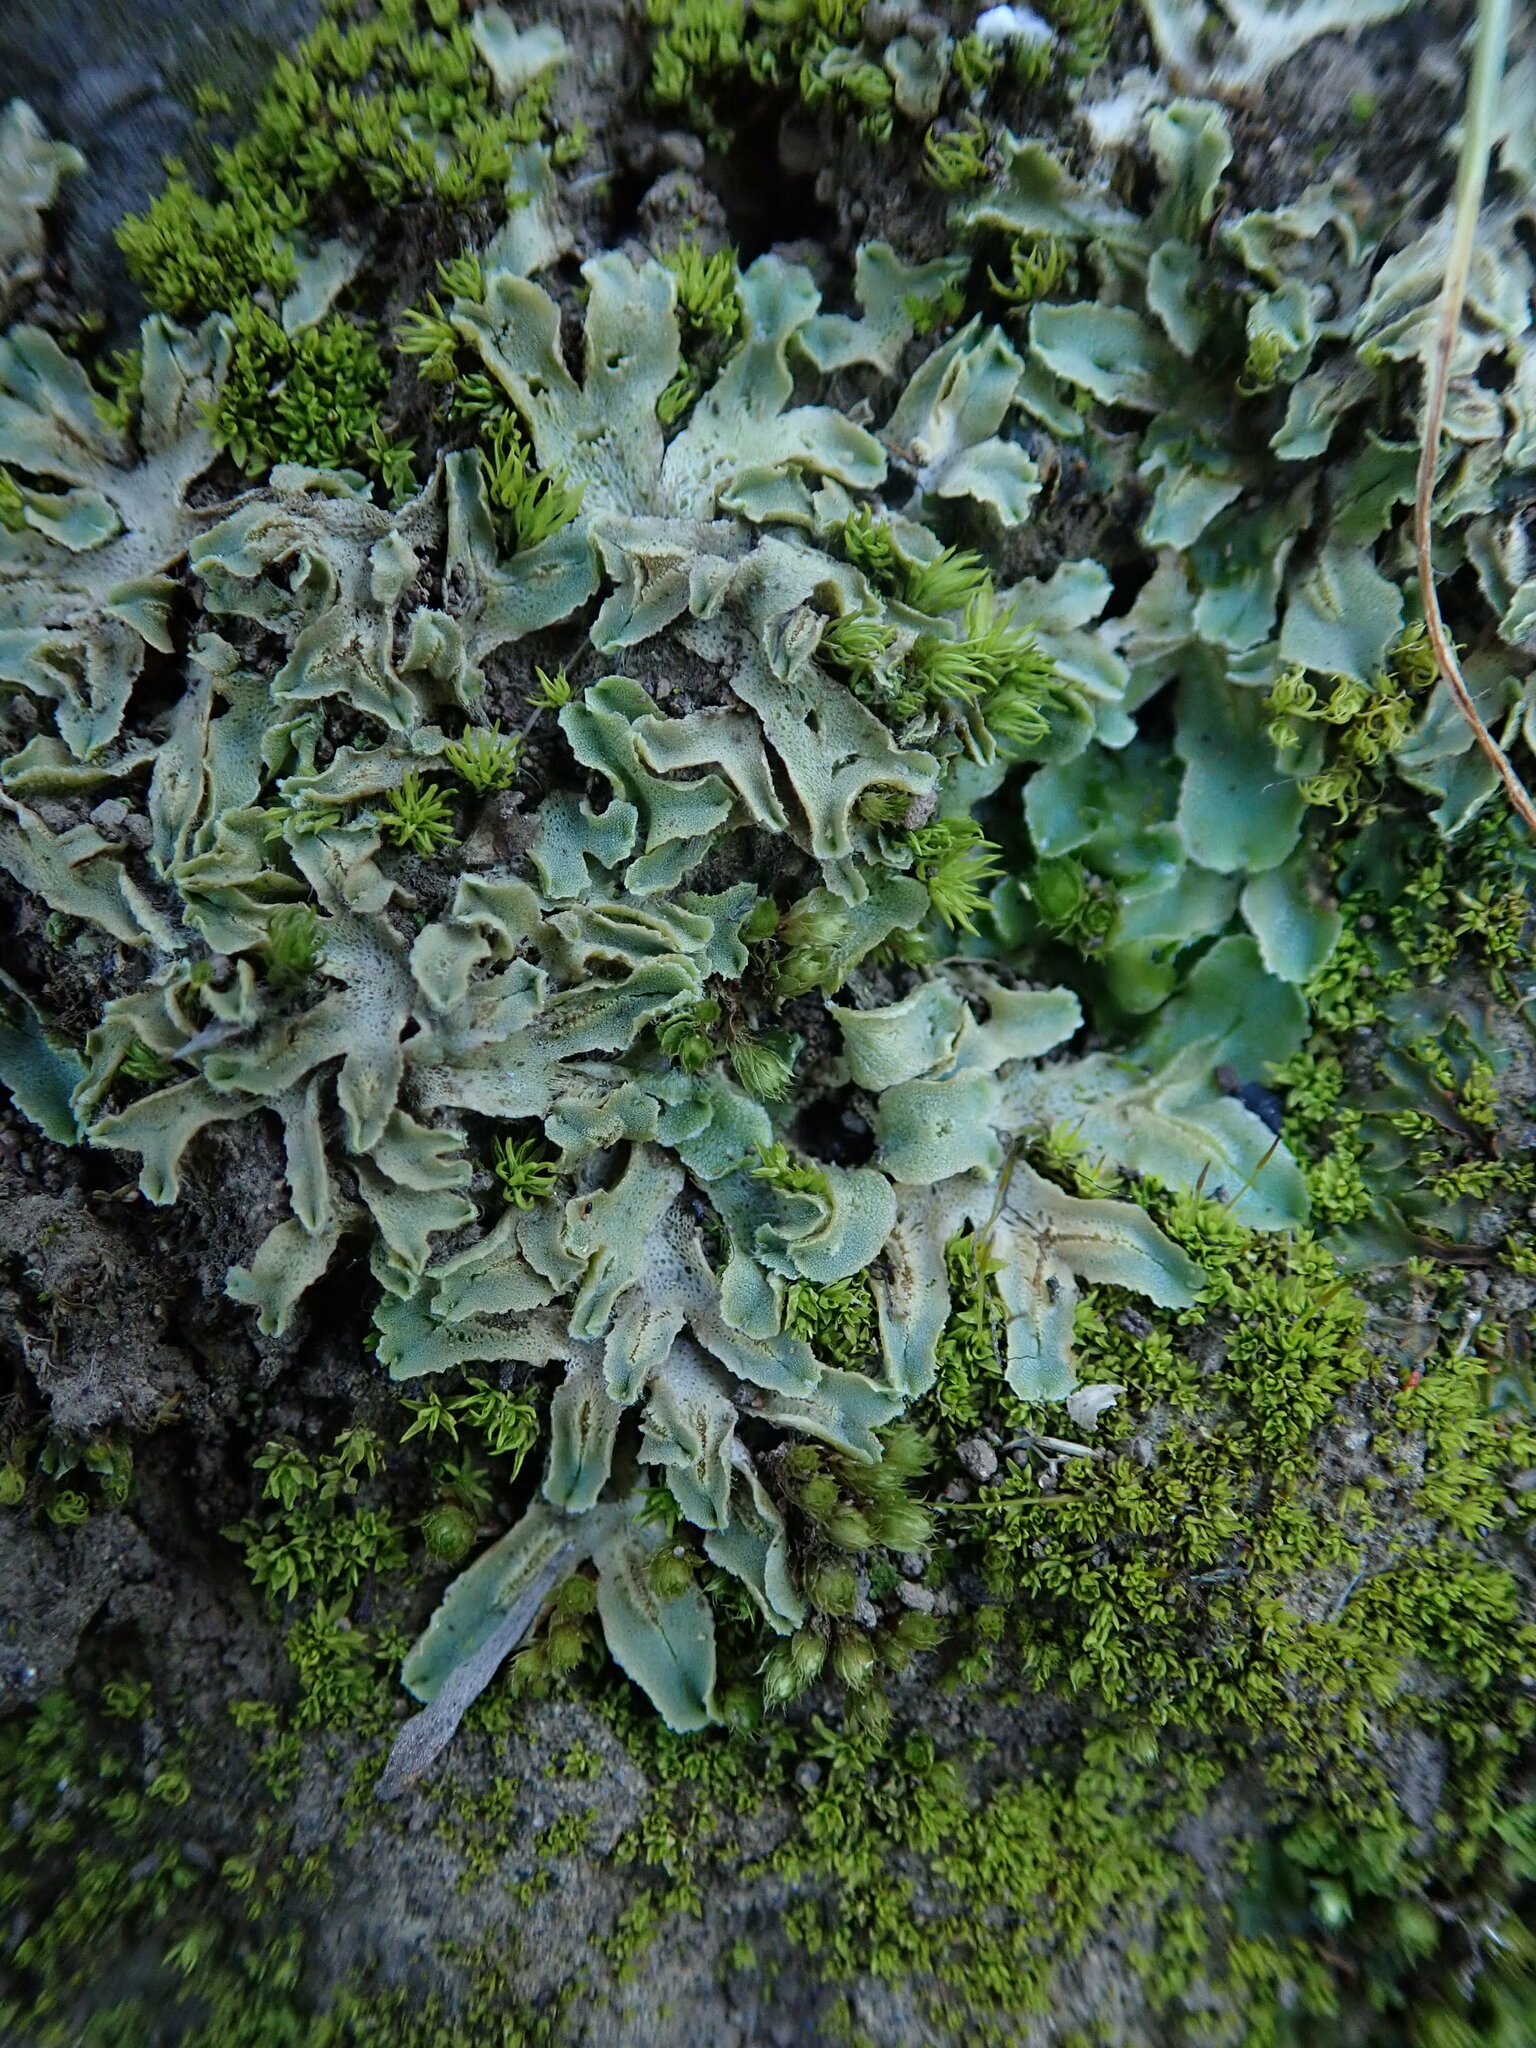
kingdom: Plantae
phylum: Marchantiophyta
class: Marchantiopsida
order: Marchantiales
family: Corsiniaceae
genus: Corsinia
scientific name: Corsinia coriandrina
